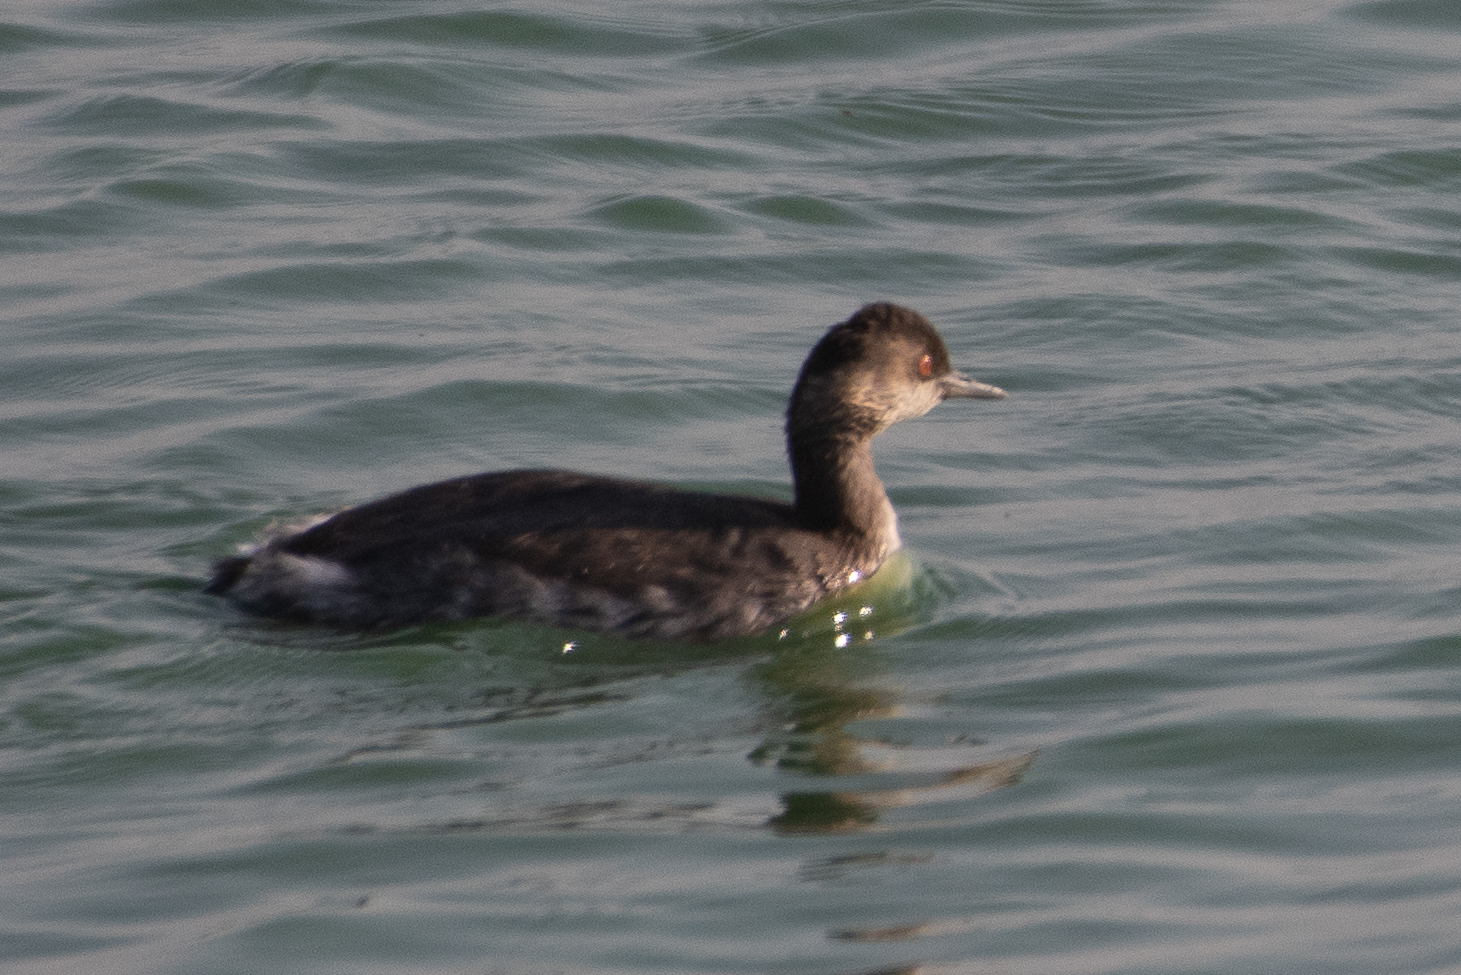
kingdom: Animalia
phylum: Chordata
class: Aves
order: Podicipediformes
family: Podicipedidae
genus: Podiceps
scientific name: Podiceps nigricollis
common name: Black-necked grebe
